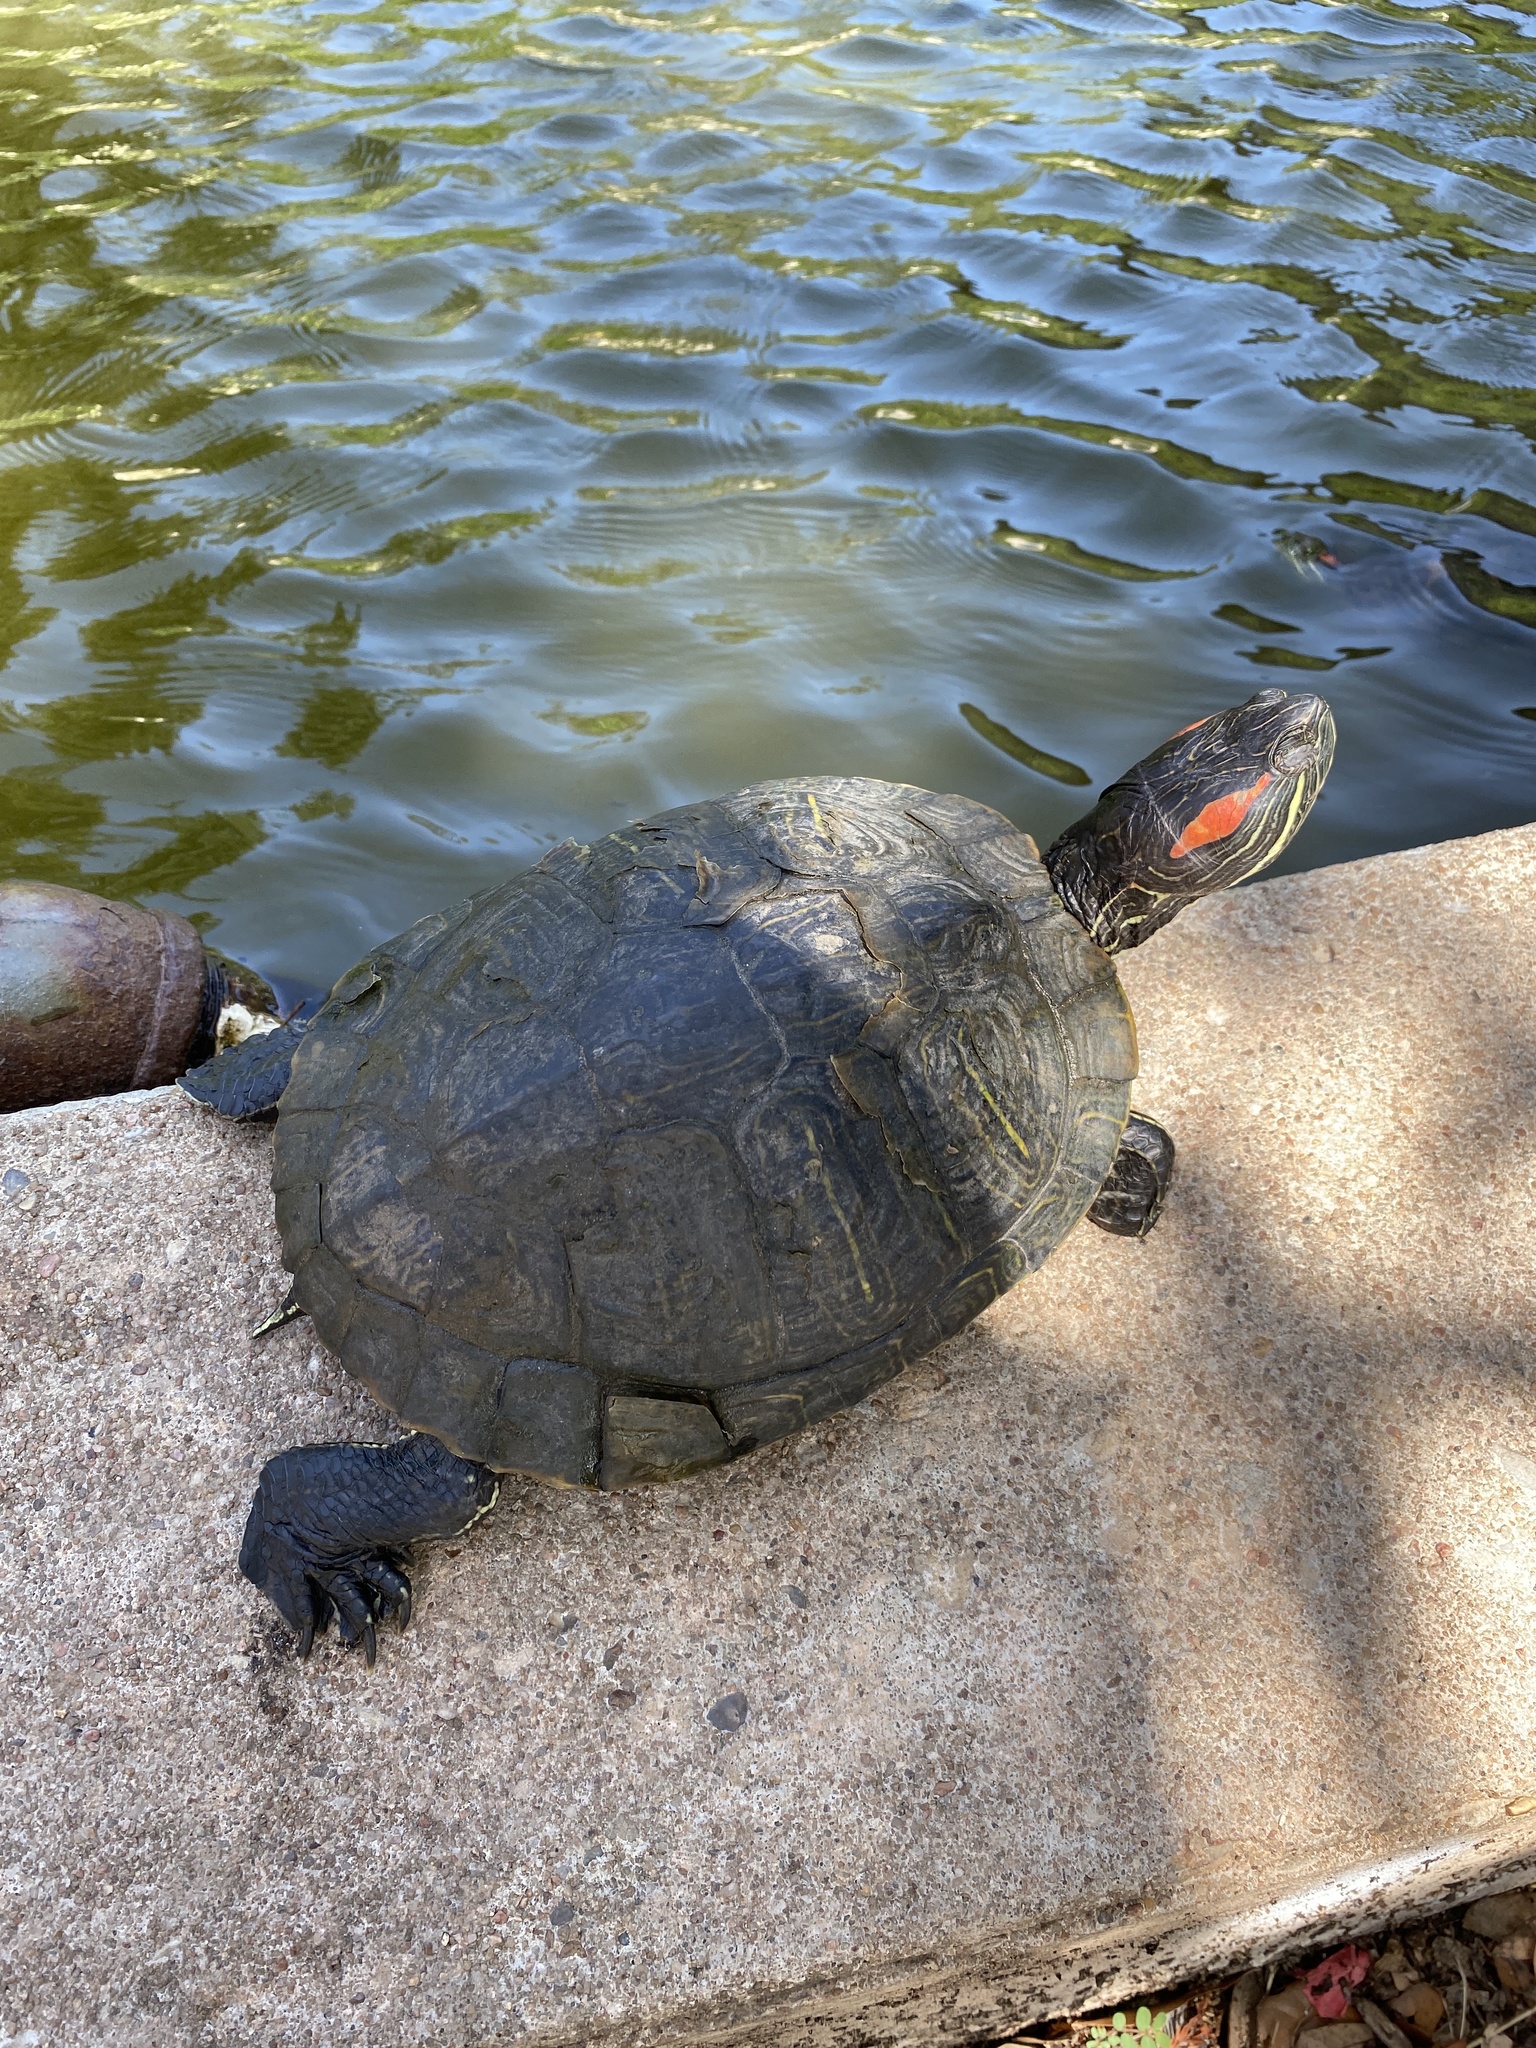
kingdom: Animalia
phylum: Chordata
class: Testudines
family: Emydidae
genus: Trachemys
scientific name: Trachemys scripta
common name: Slider
